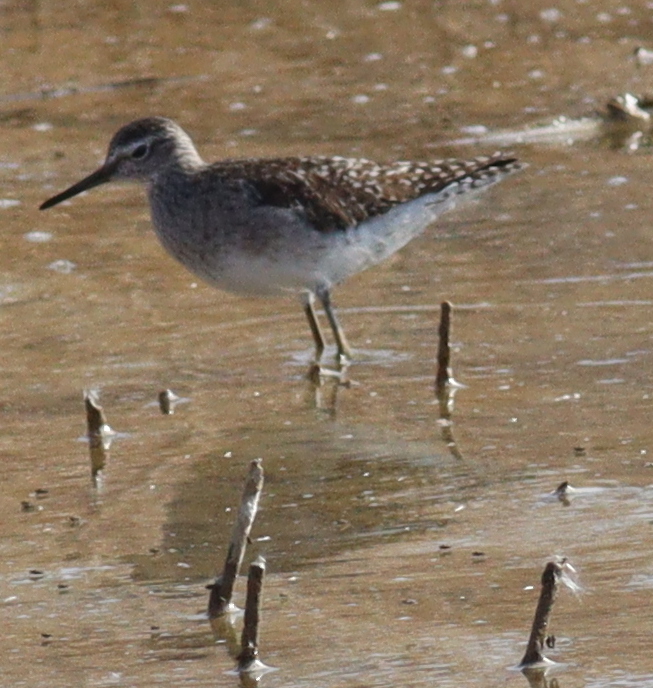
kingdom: Animalia
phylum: Chordata
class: Aves
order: Charadriiformes
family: Scolopacidae
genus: Tringa
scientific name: Tringa glareola
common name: Wood sandpiper
